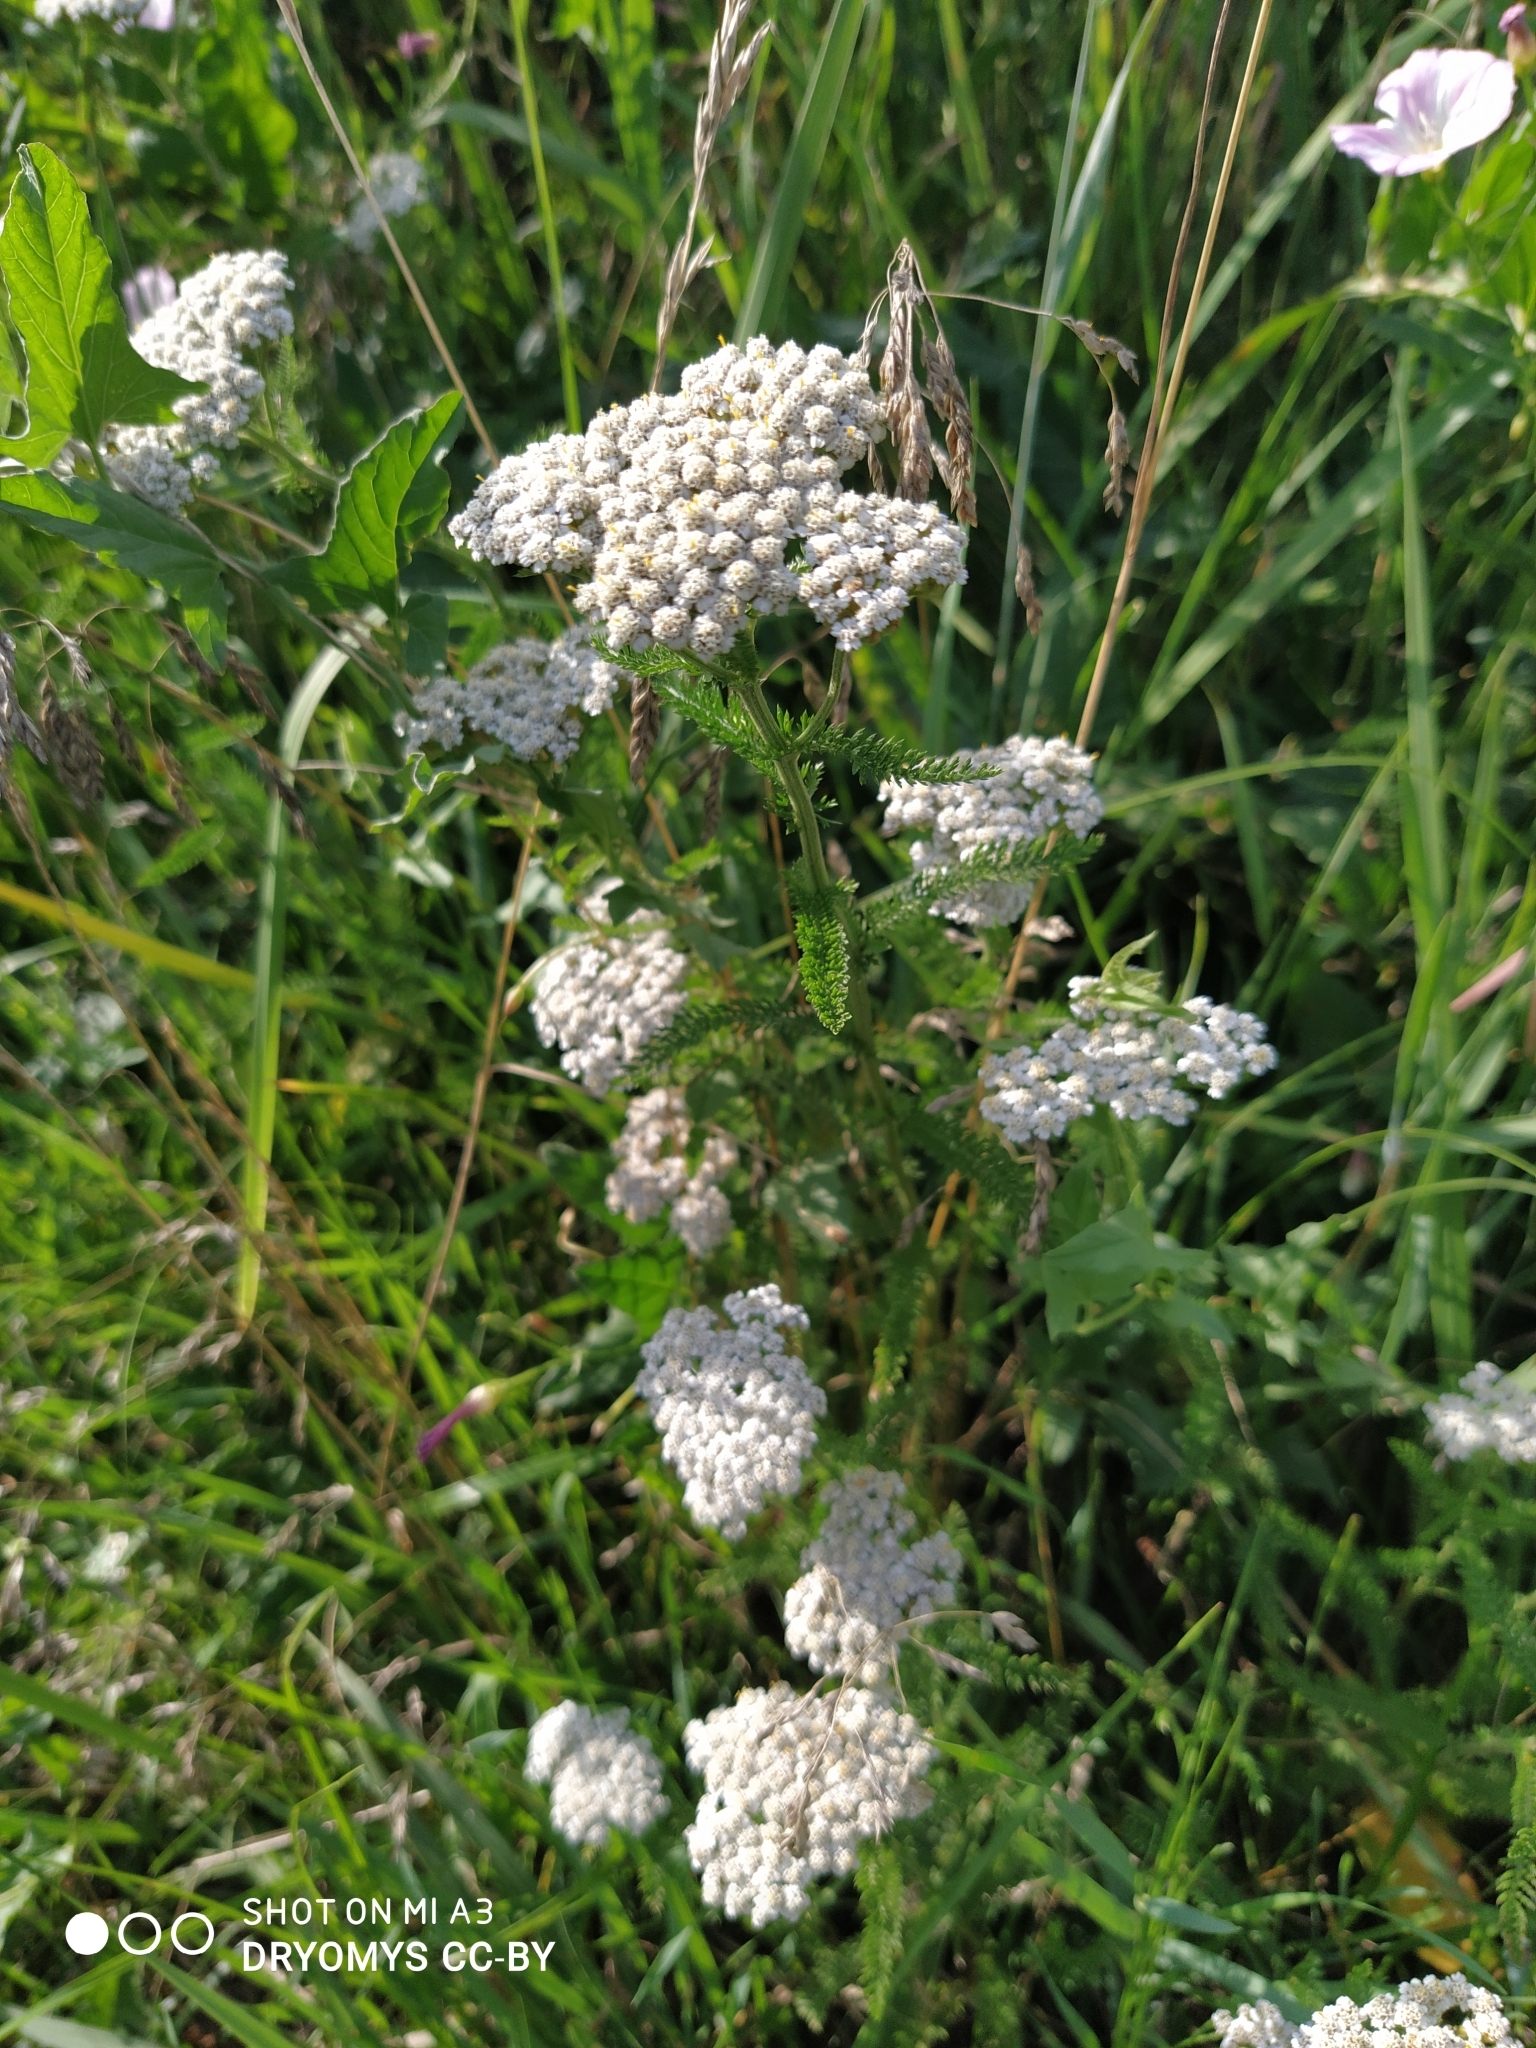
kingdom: Plantae
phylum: Tracheophyta
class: Magnoliopsida
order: Asterales
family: Asteraceae
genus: Achillea
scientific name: Achillea millefolium
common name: Yarrow
